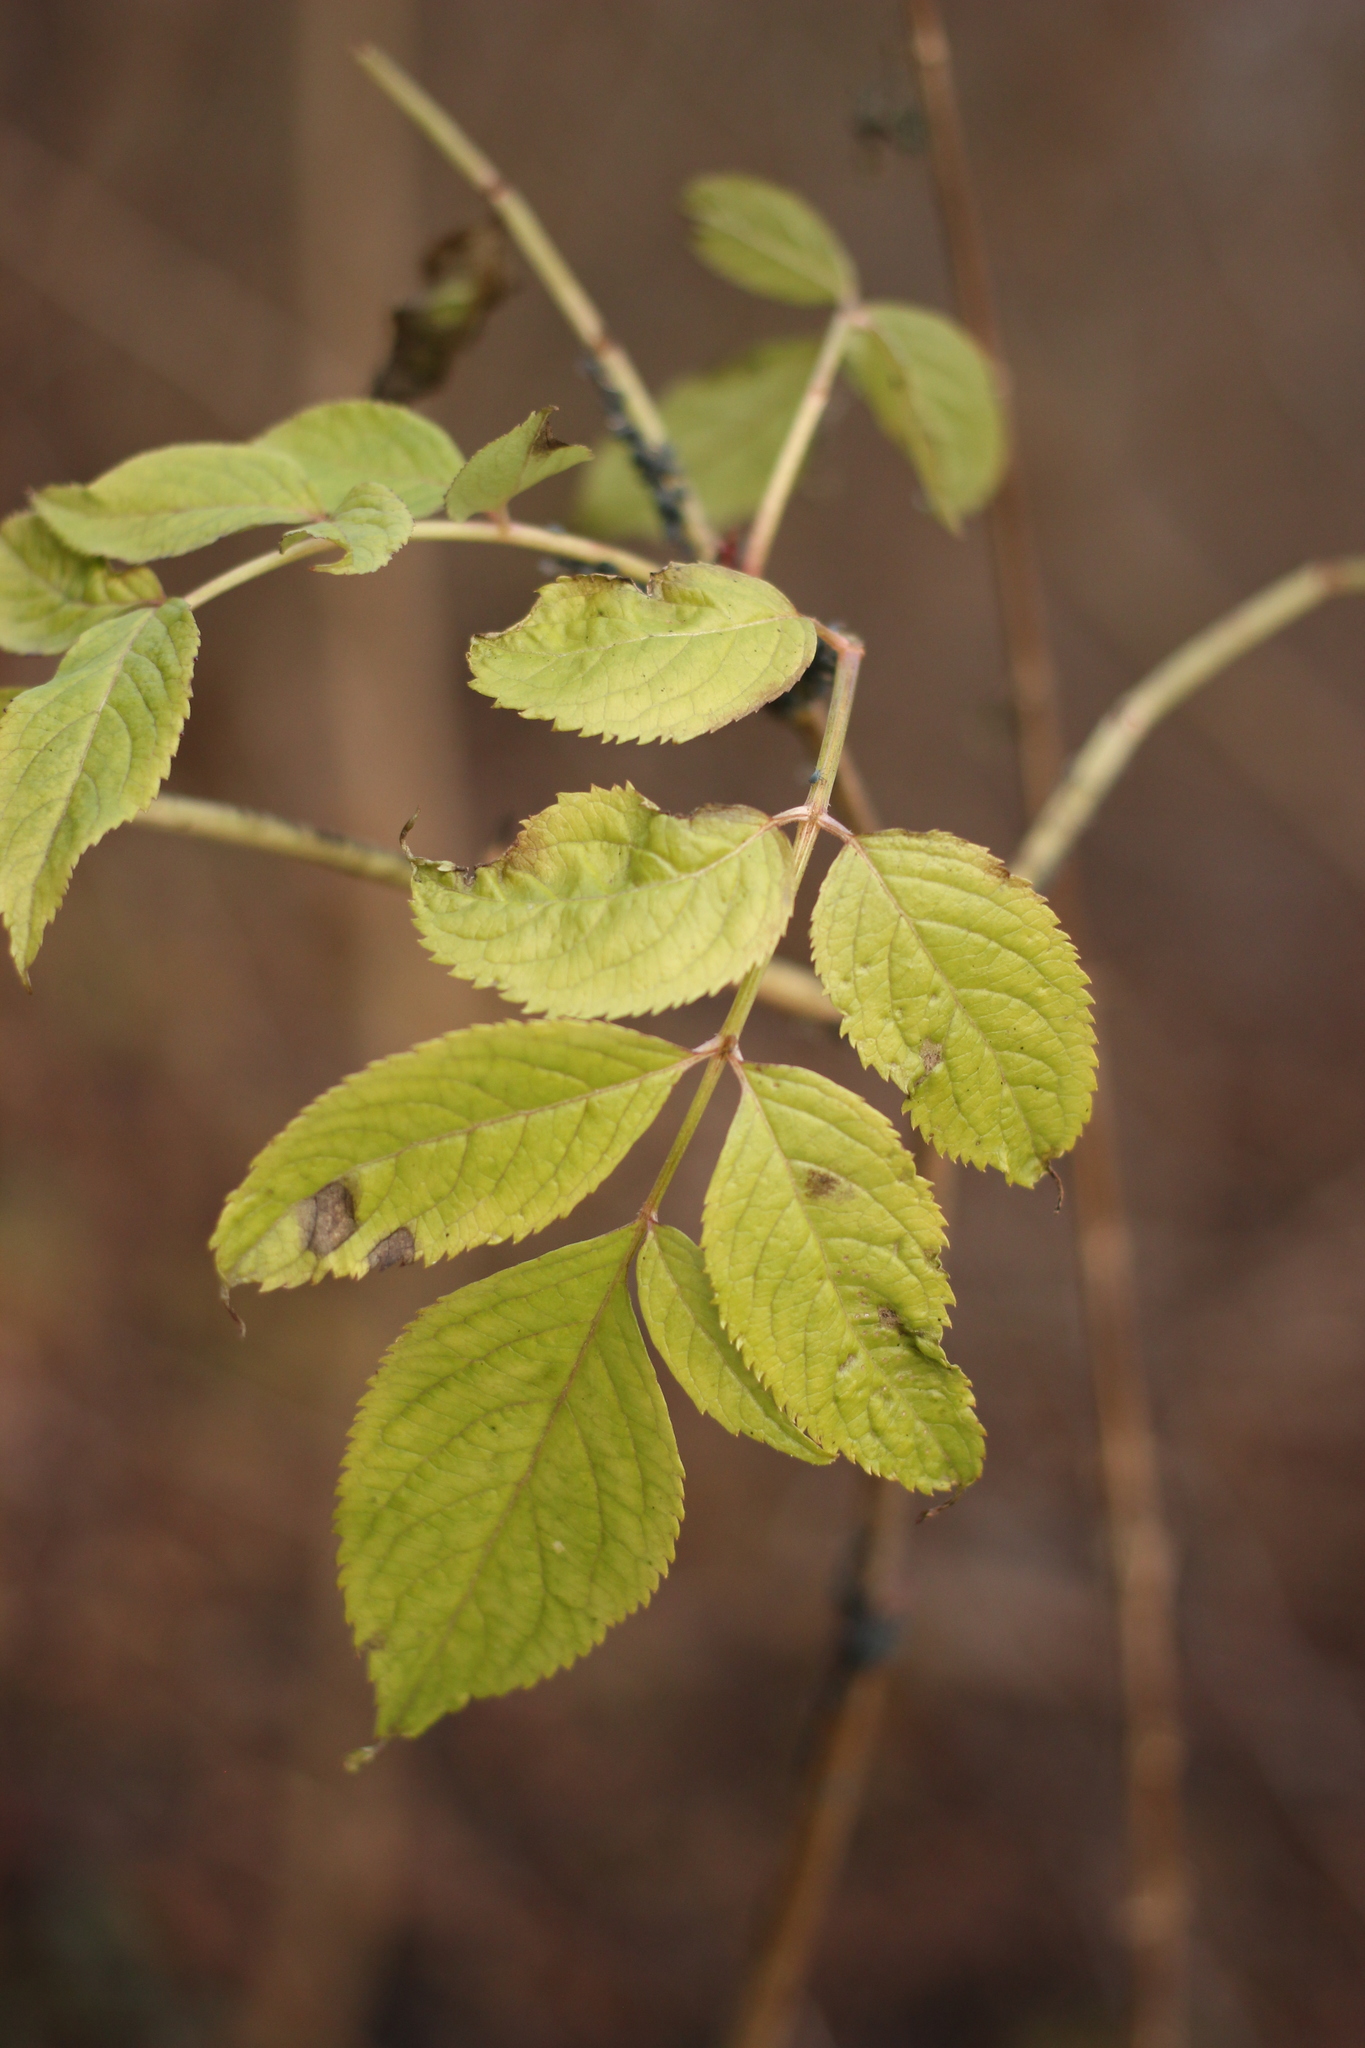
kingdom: Plantae
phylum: Tracheophyta
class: Magnoliopsida
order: Dipsacales
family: Viburnaceae
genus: Sambucus
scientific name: Sambucus nigra
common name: Elder
